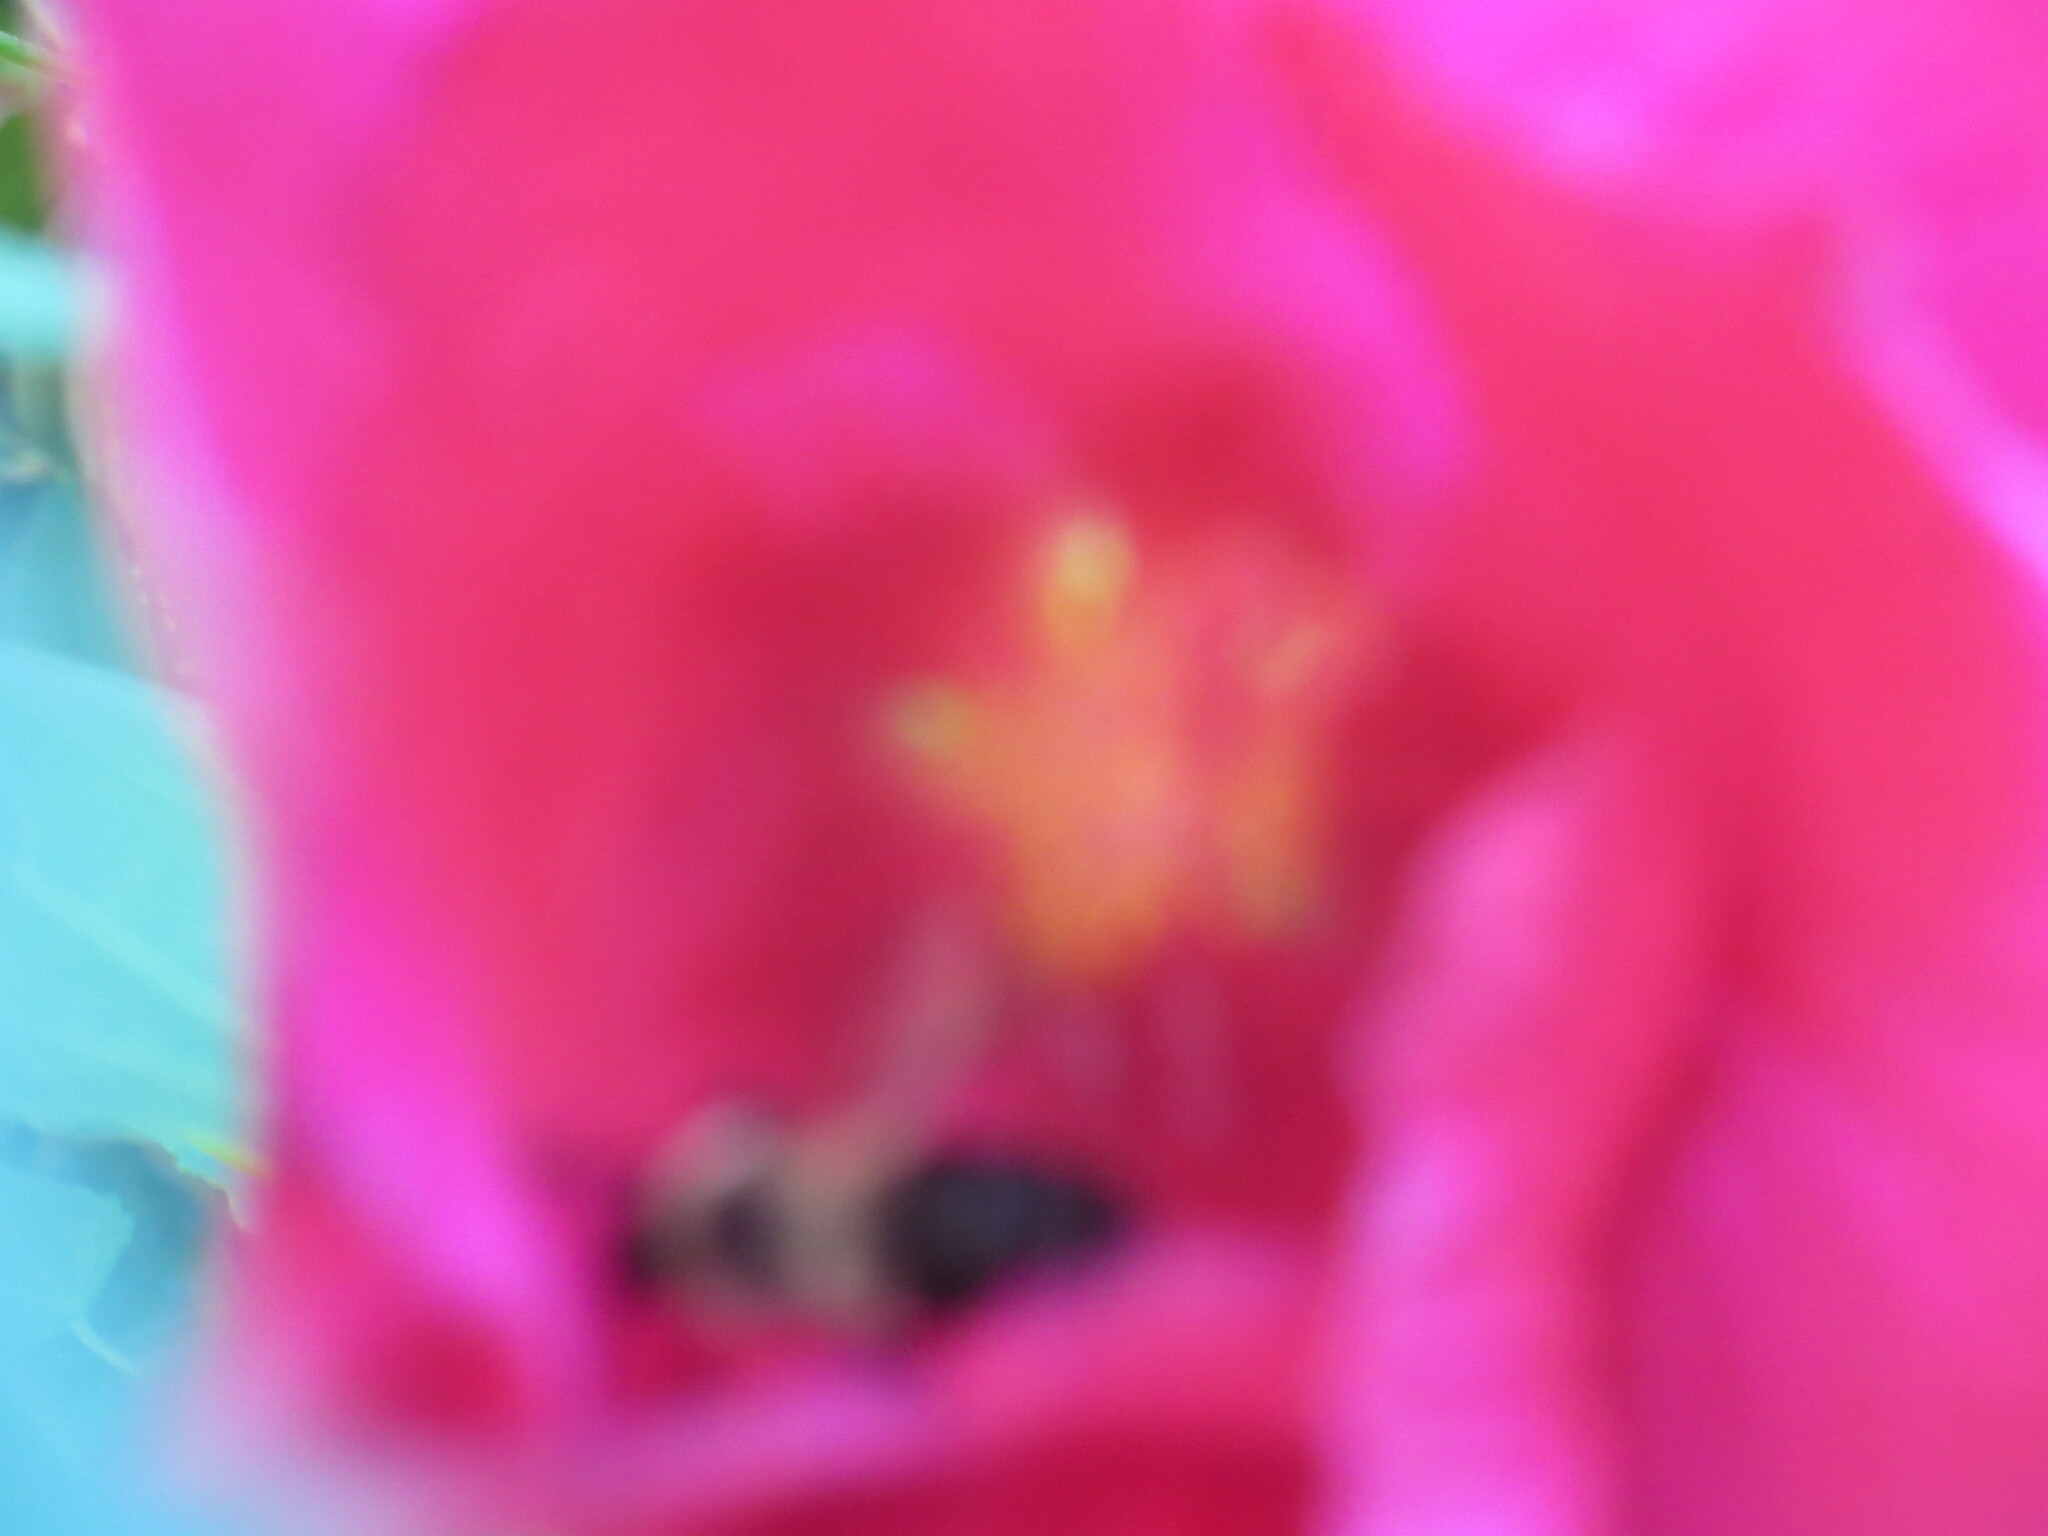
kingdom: Animalia
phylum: Arthropoda
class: Insecta
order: Hymenoptera
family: Apidae
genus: Bombus
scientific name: Bombus impatiens
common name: Common eastern bumble bee
